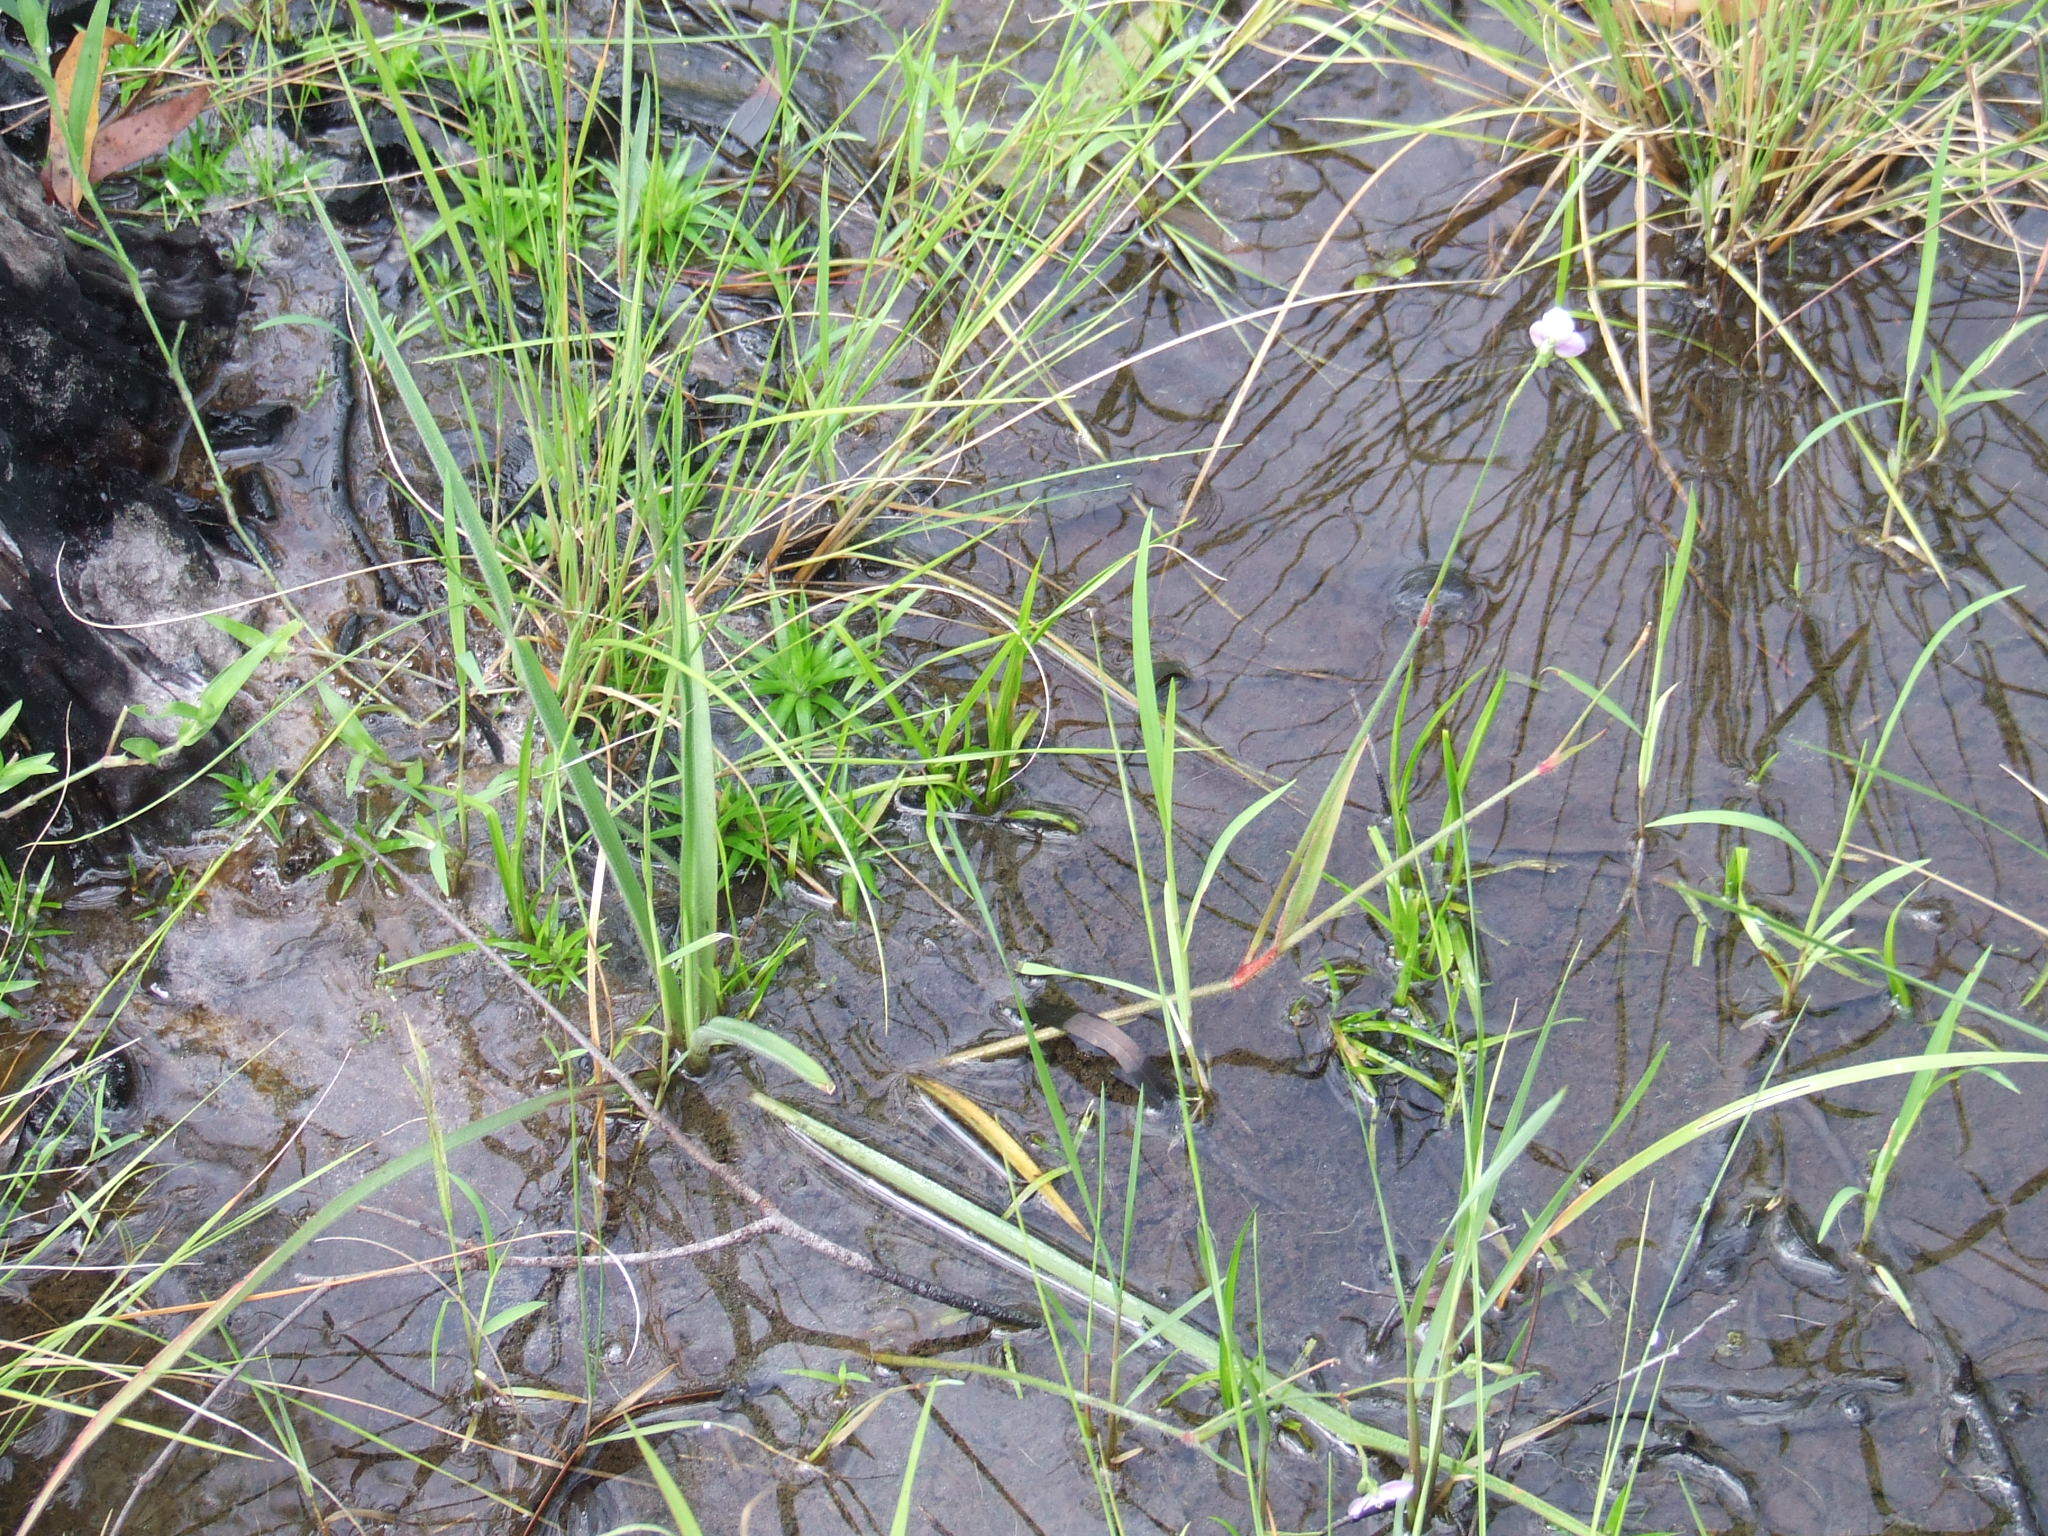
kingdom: Plantae
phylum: Tracheophyta
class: Liliopsida
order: Commelinales
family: Commelinaceae
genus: Murdannia
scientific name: Murdannia gigantea
